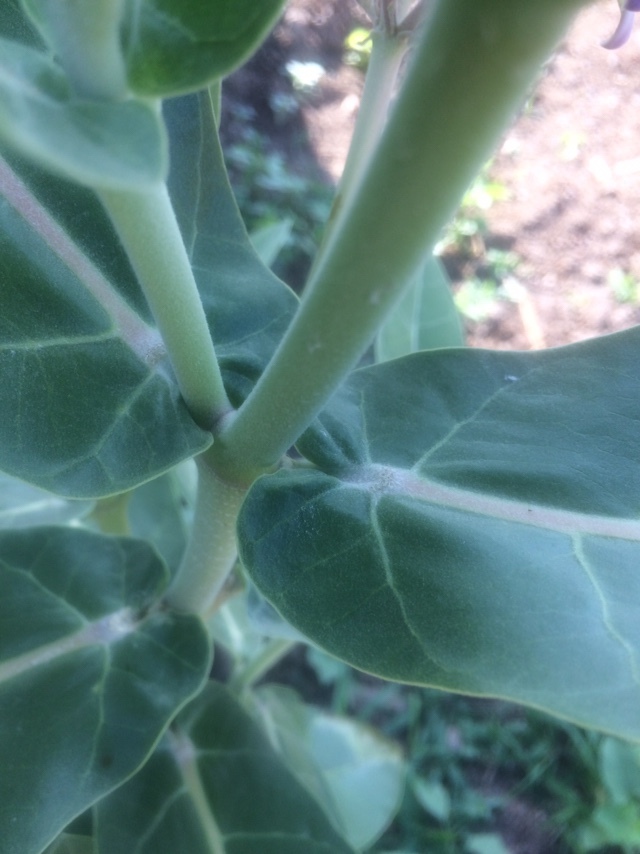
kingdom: Plantae
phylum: Tracheophyta
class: Magnoliopsida
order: Gentianales
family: Apocynaceae
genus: Calotropis
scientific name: Calotropis gigantea
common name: Crown flower
